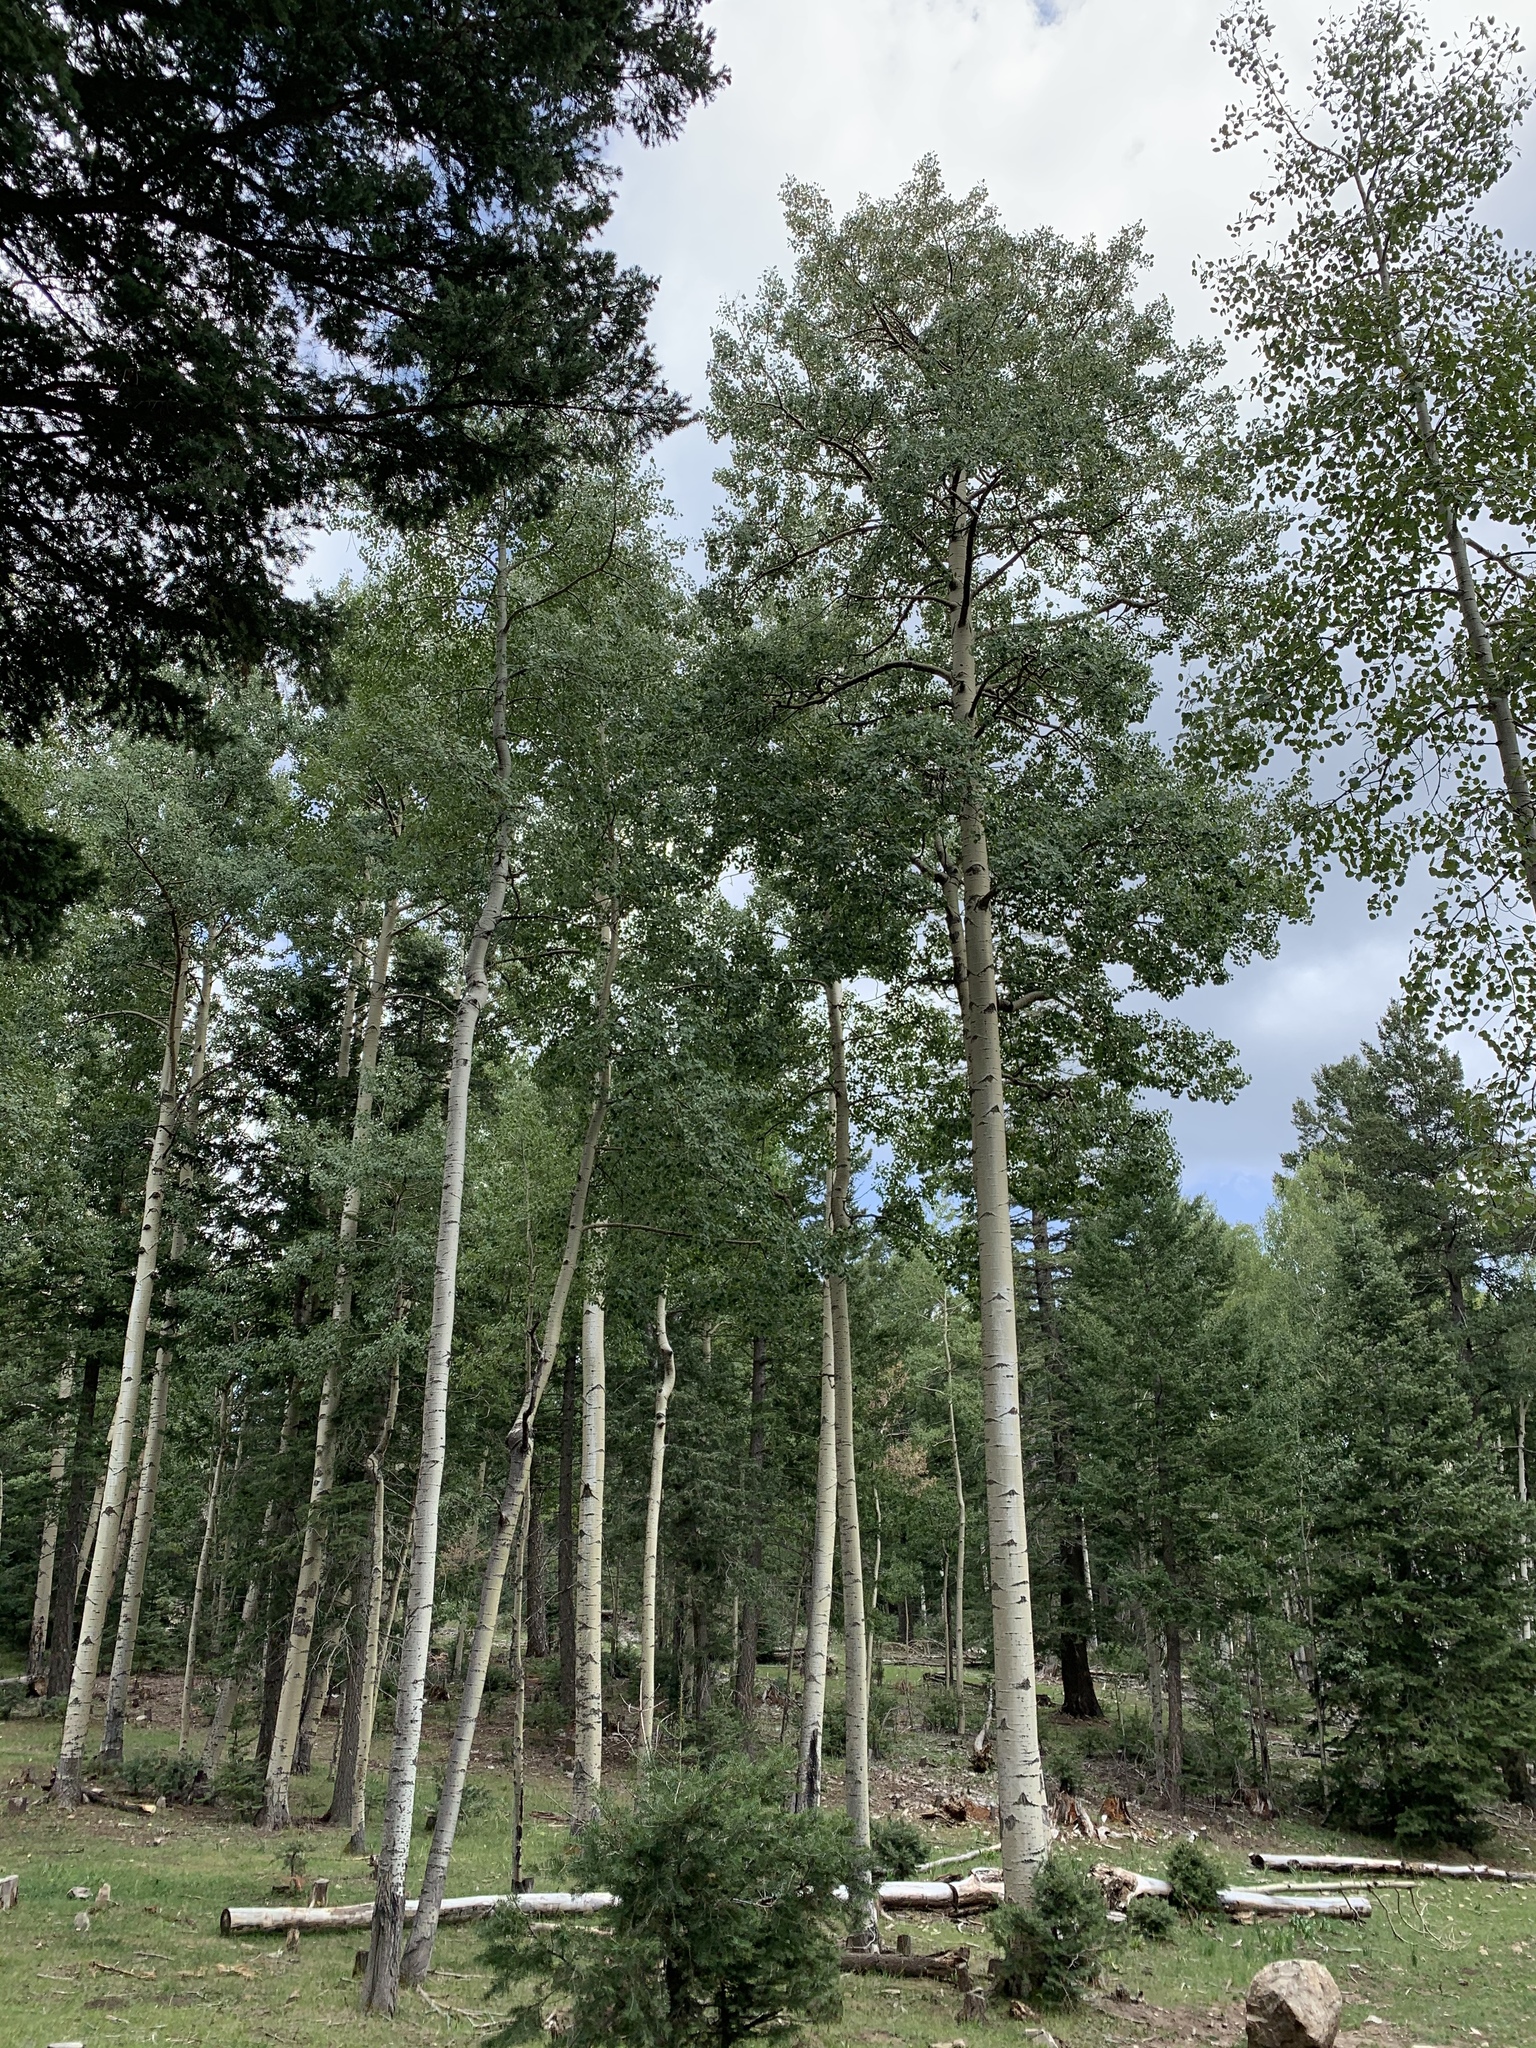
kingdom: Plantae
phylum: Tracheophyta
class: Magnoliopsida
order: Malpighiales
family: Salicaceae
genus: Populus
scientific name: Populus tremuloides
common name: Quaking aspen
